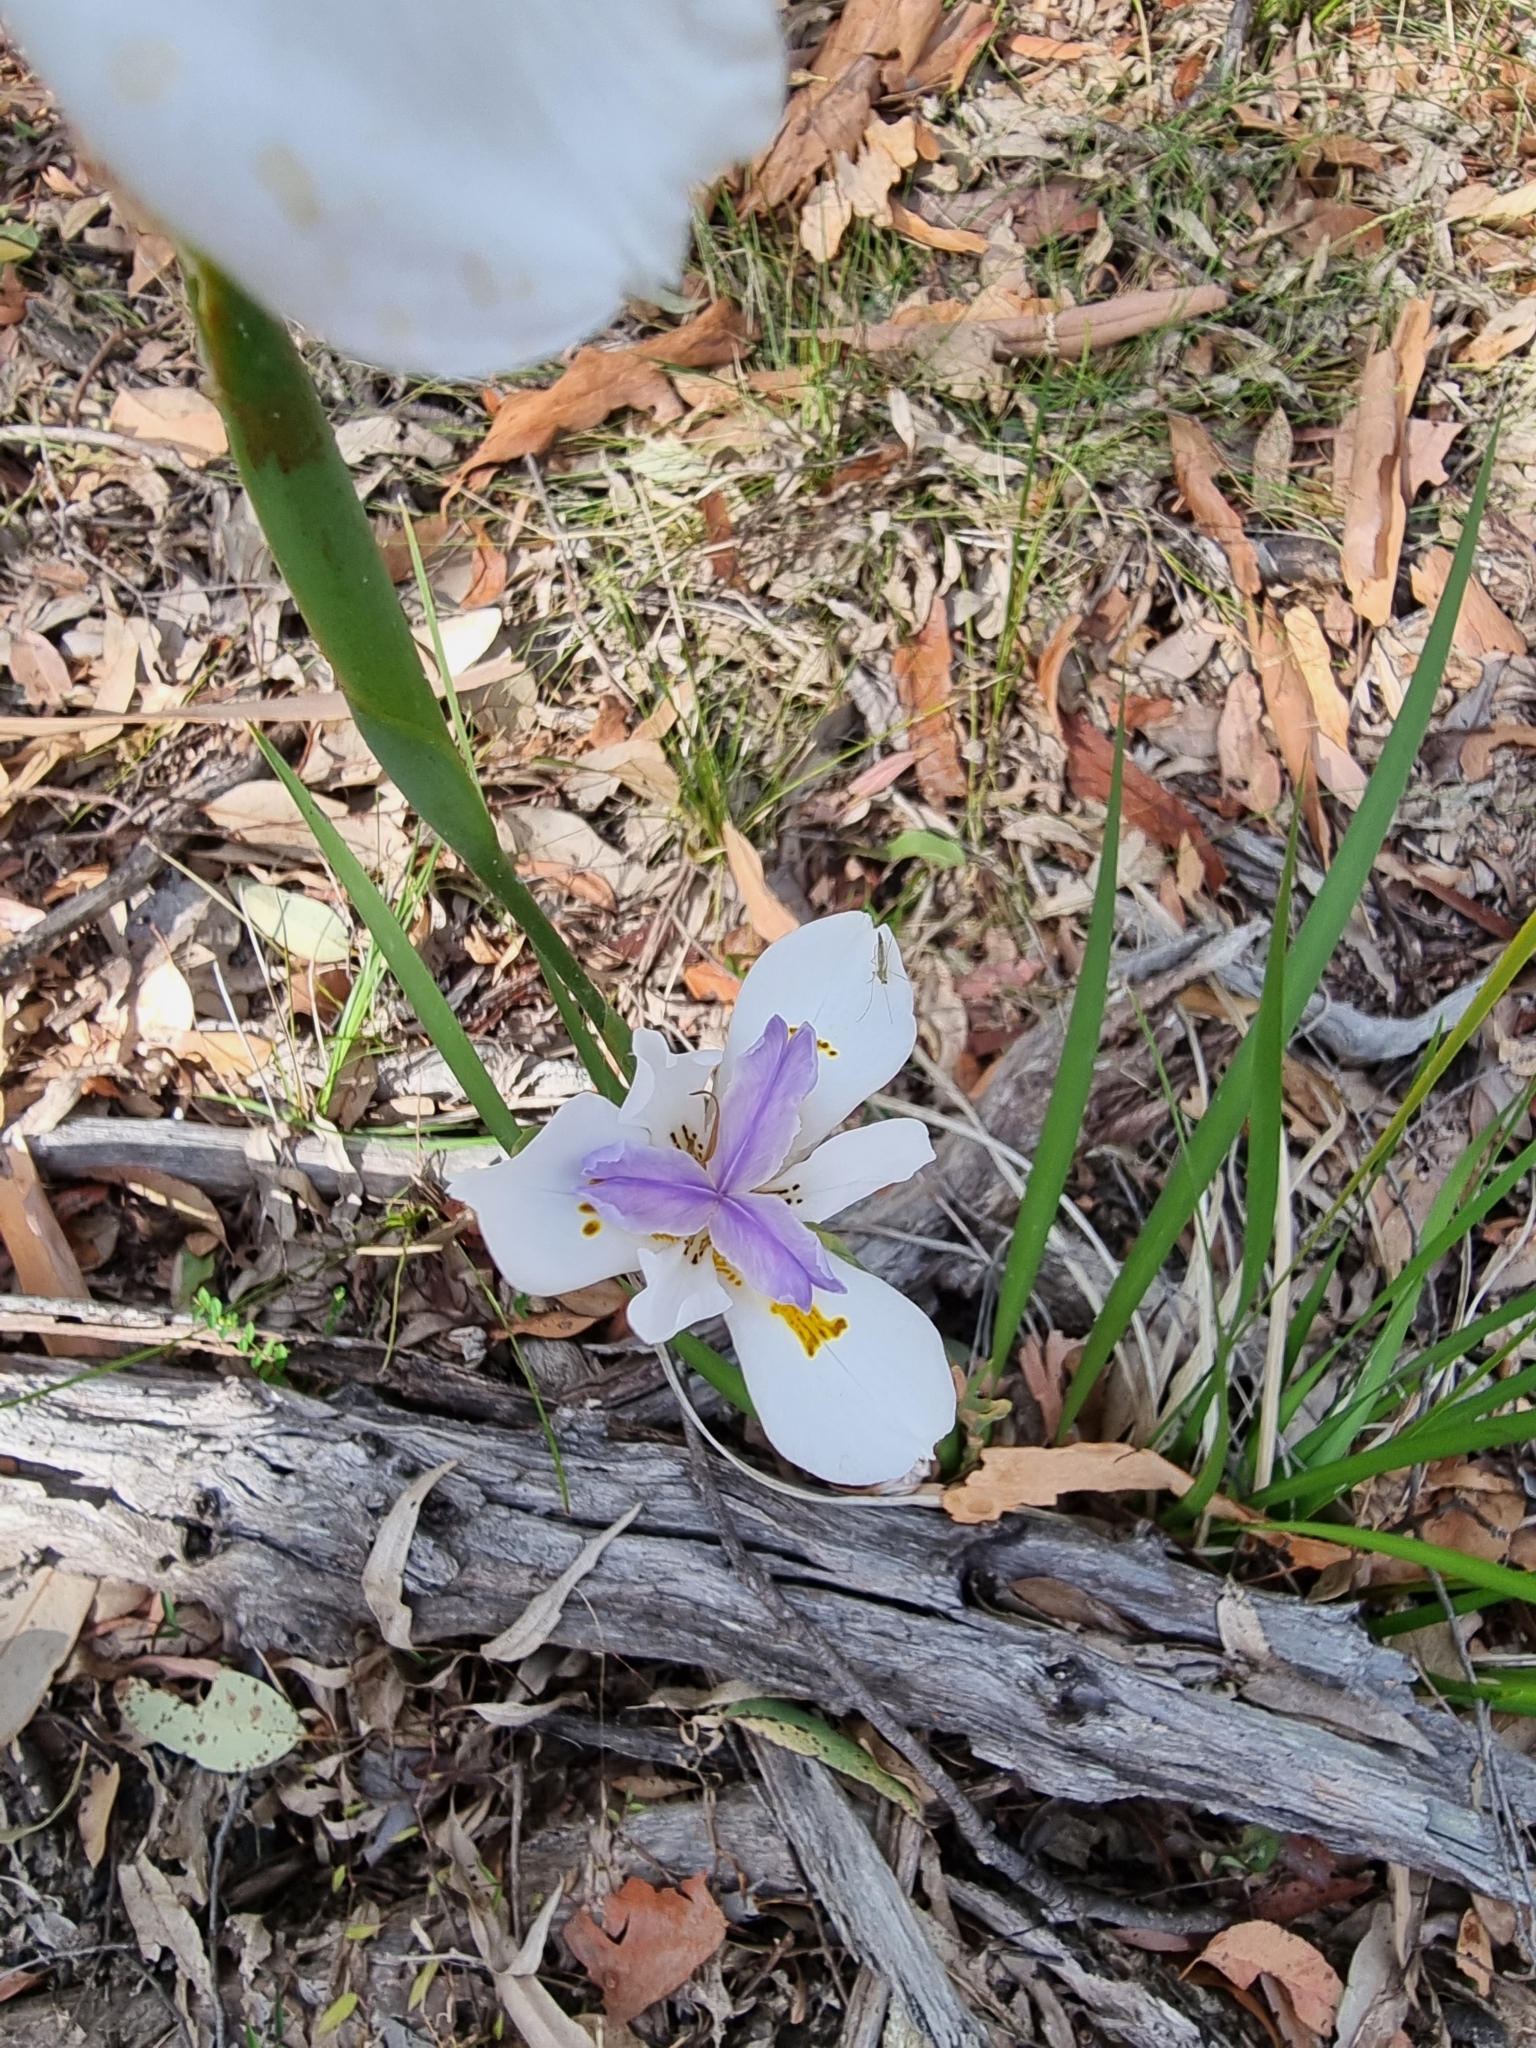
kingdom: Plantae
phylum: Tracheophyta
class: Liliopsida
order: Asparagales
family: Iridaceae
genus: Dietes
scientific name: Dietes grandiflora
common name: Wild iris
